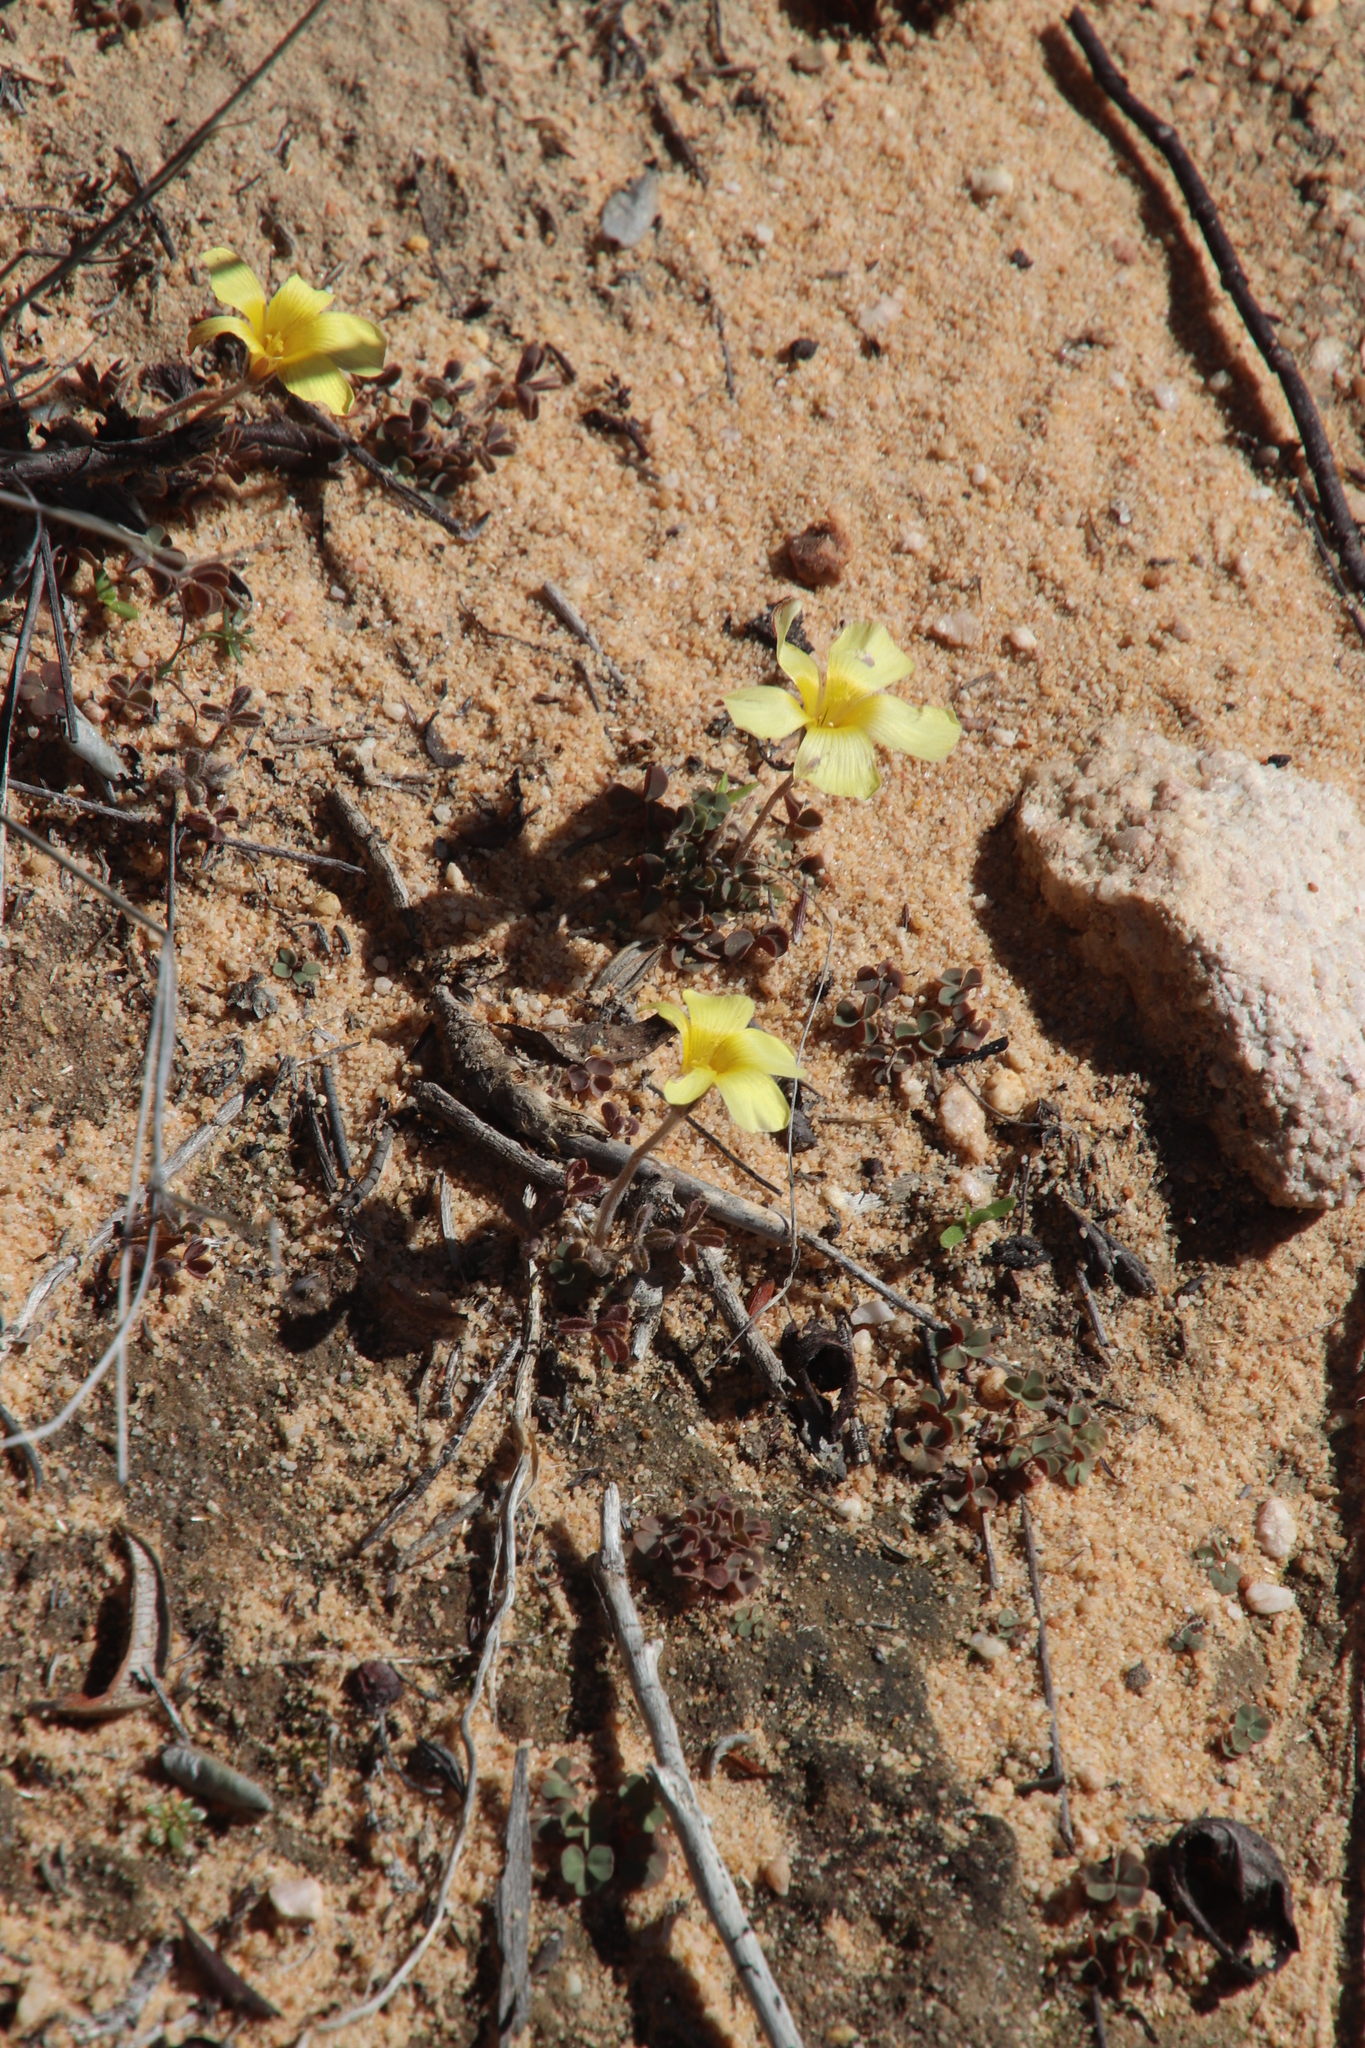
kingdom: Plantae
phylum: Tracheophyta
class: Magnoliopsida
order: Oxalidales
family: Oxalidaceae
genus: Oxalis
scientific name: Oxalis obtusa
